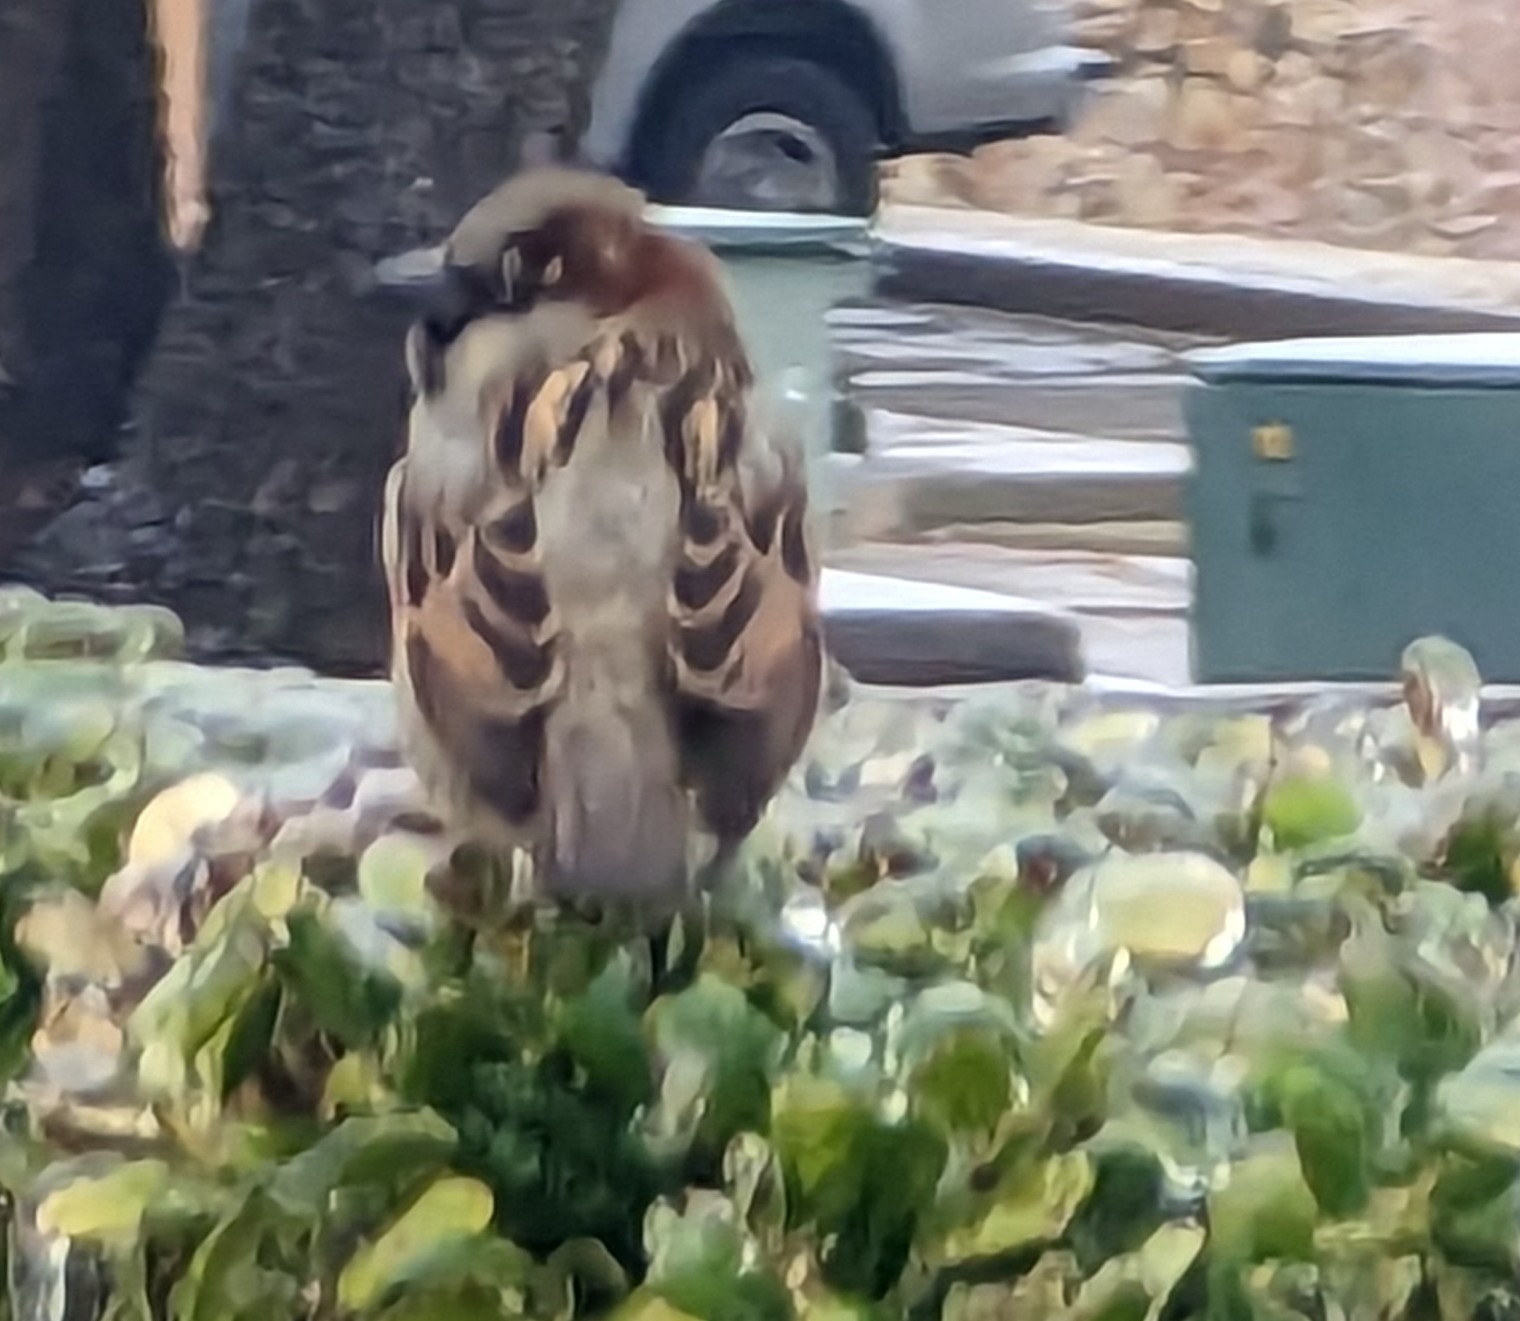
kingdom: Animalia
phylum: Chordata
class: Aves
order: Passeriformes
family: Passeridae
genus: Passer
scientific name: Passer domesticus
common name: House sparrow
